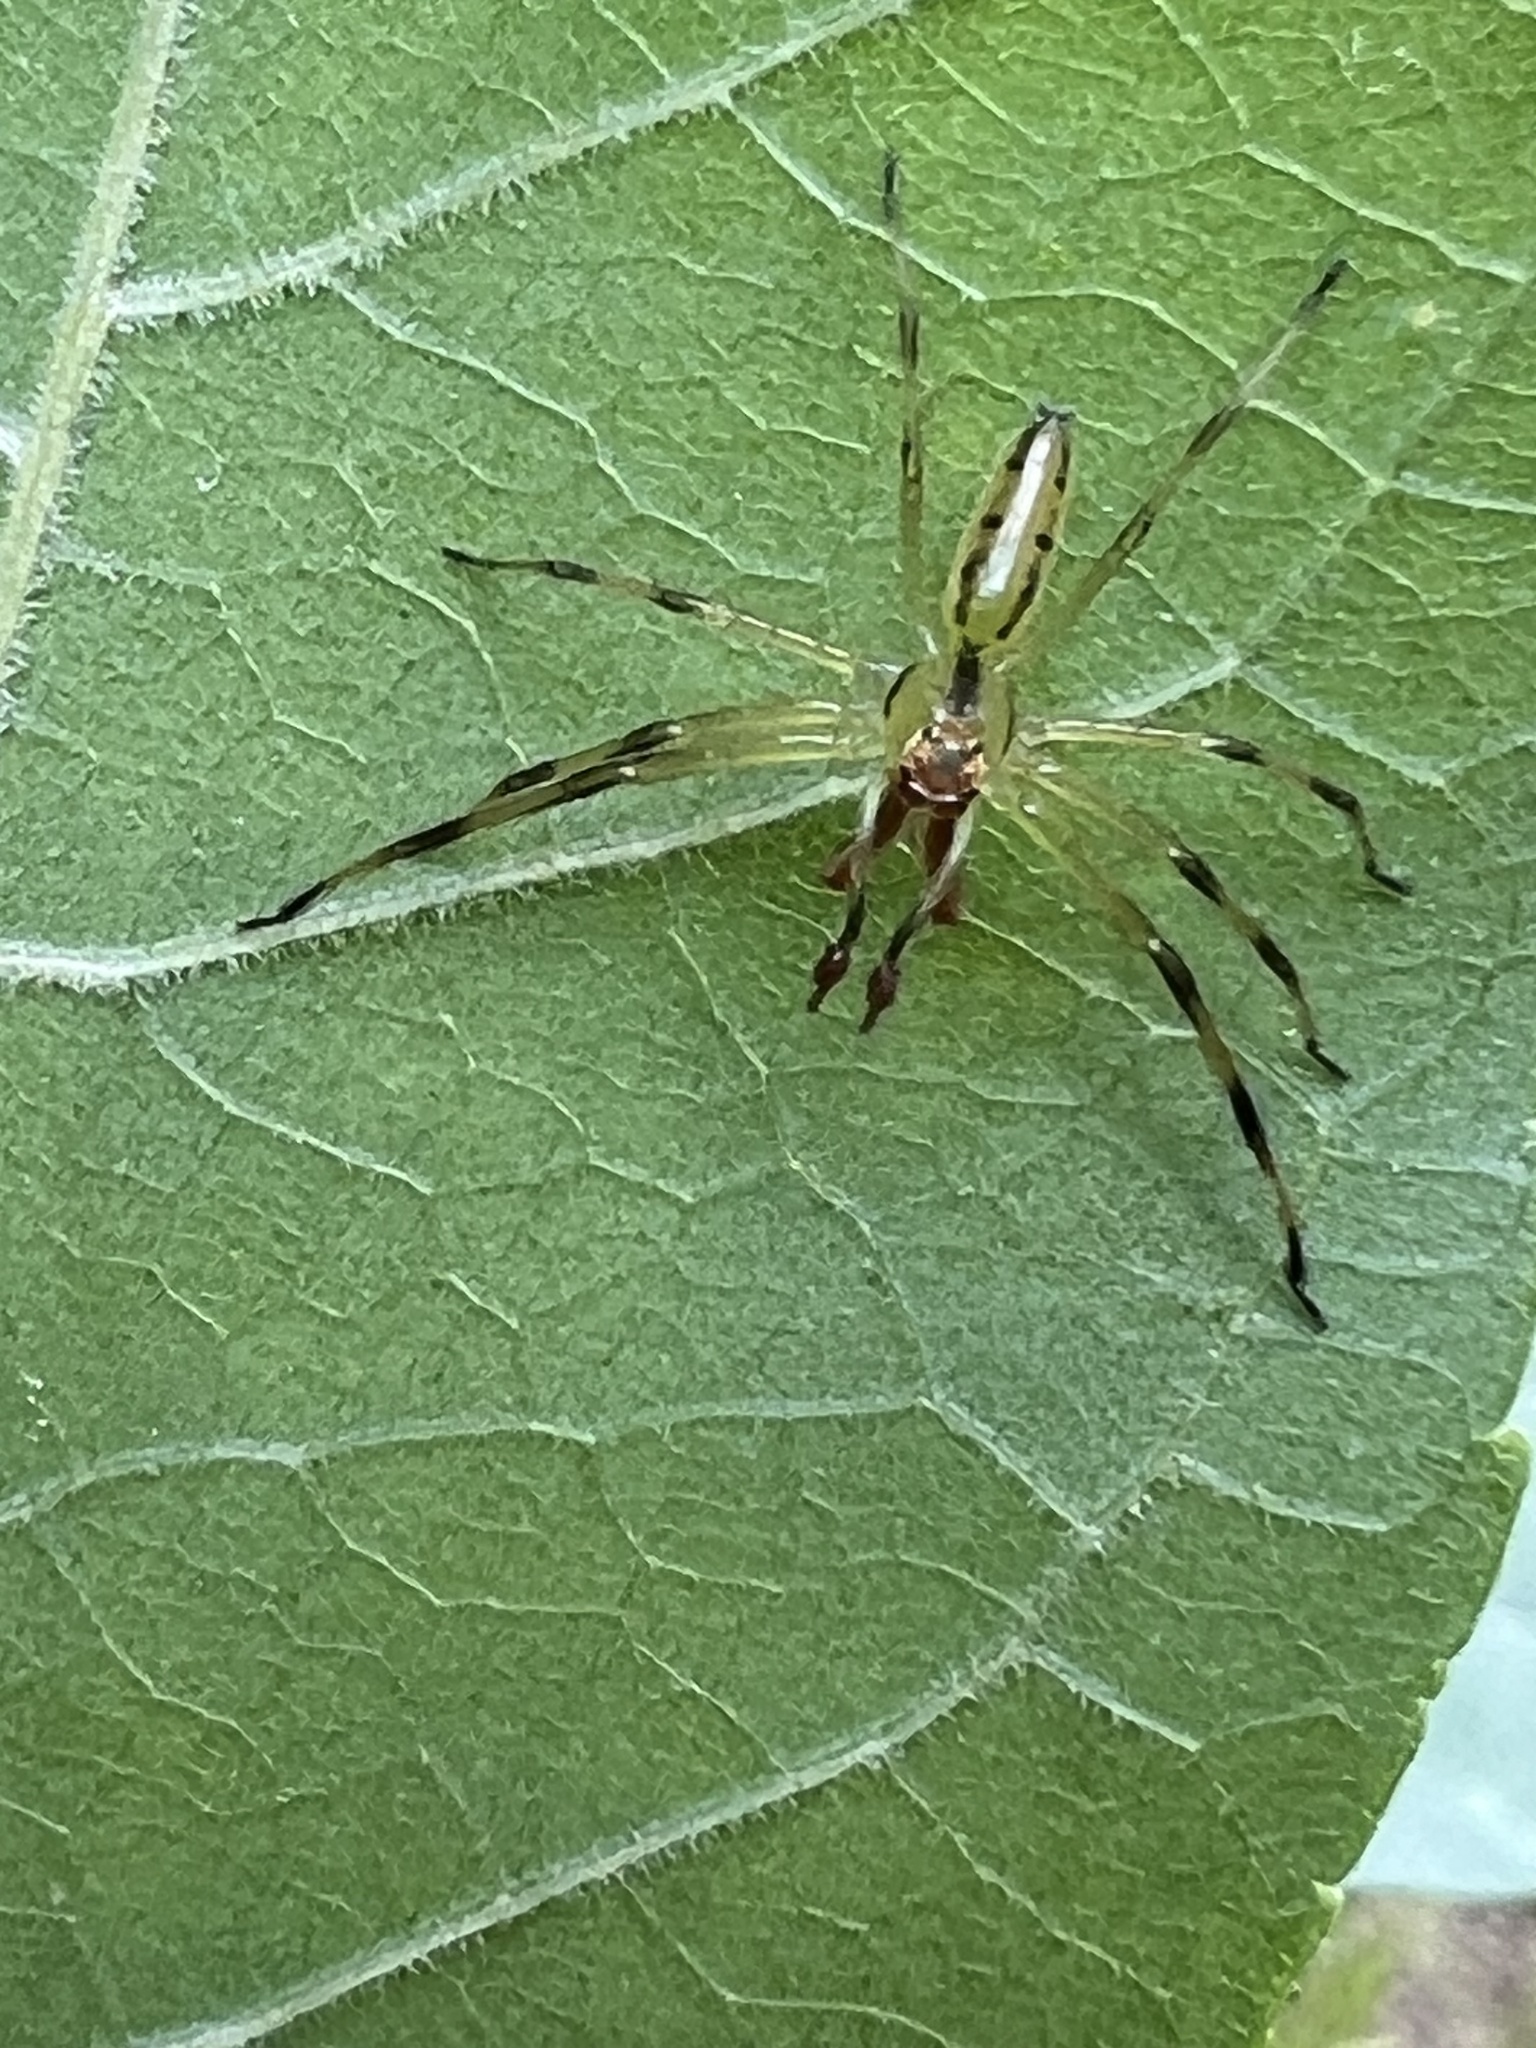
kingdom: Animalia
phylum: Arthropoda
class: Arachnida
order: Araneae
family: Salticidae
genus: Lyssomanes
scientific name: Lyssomanes viridis
